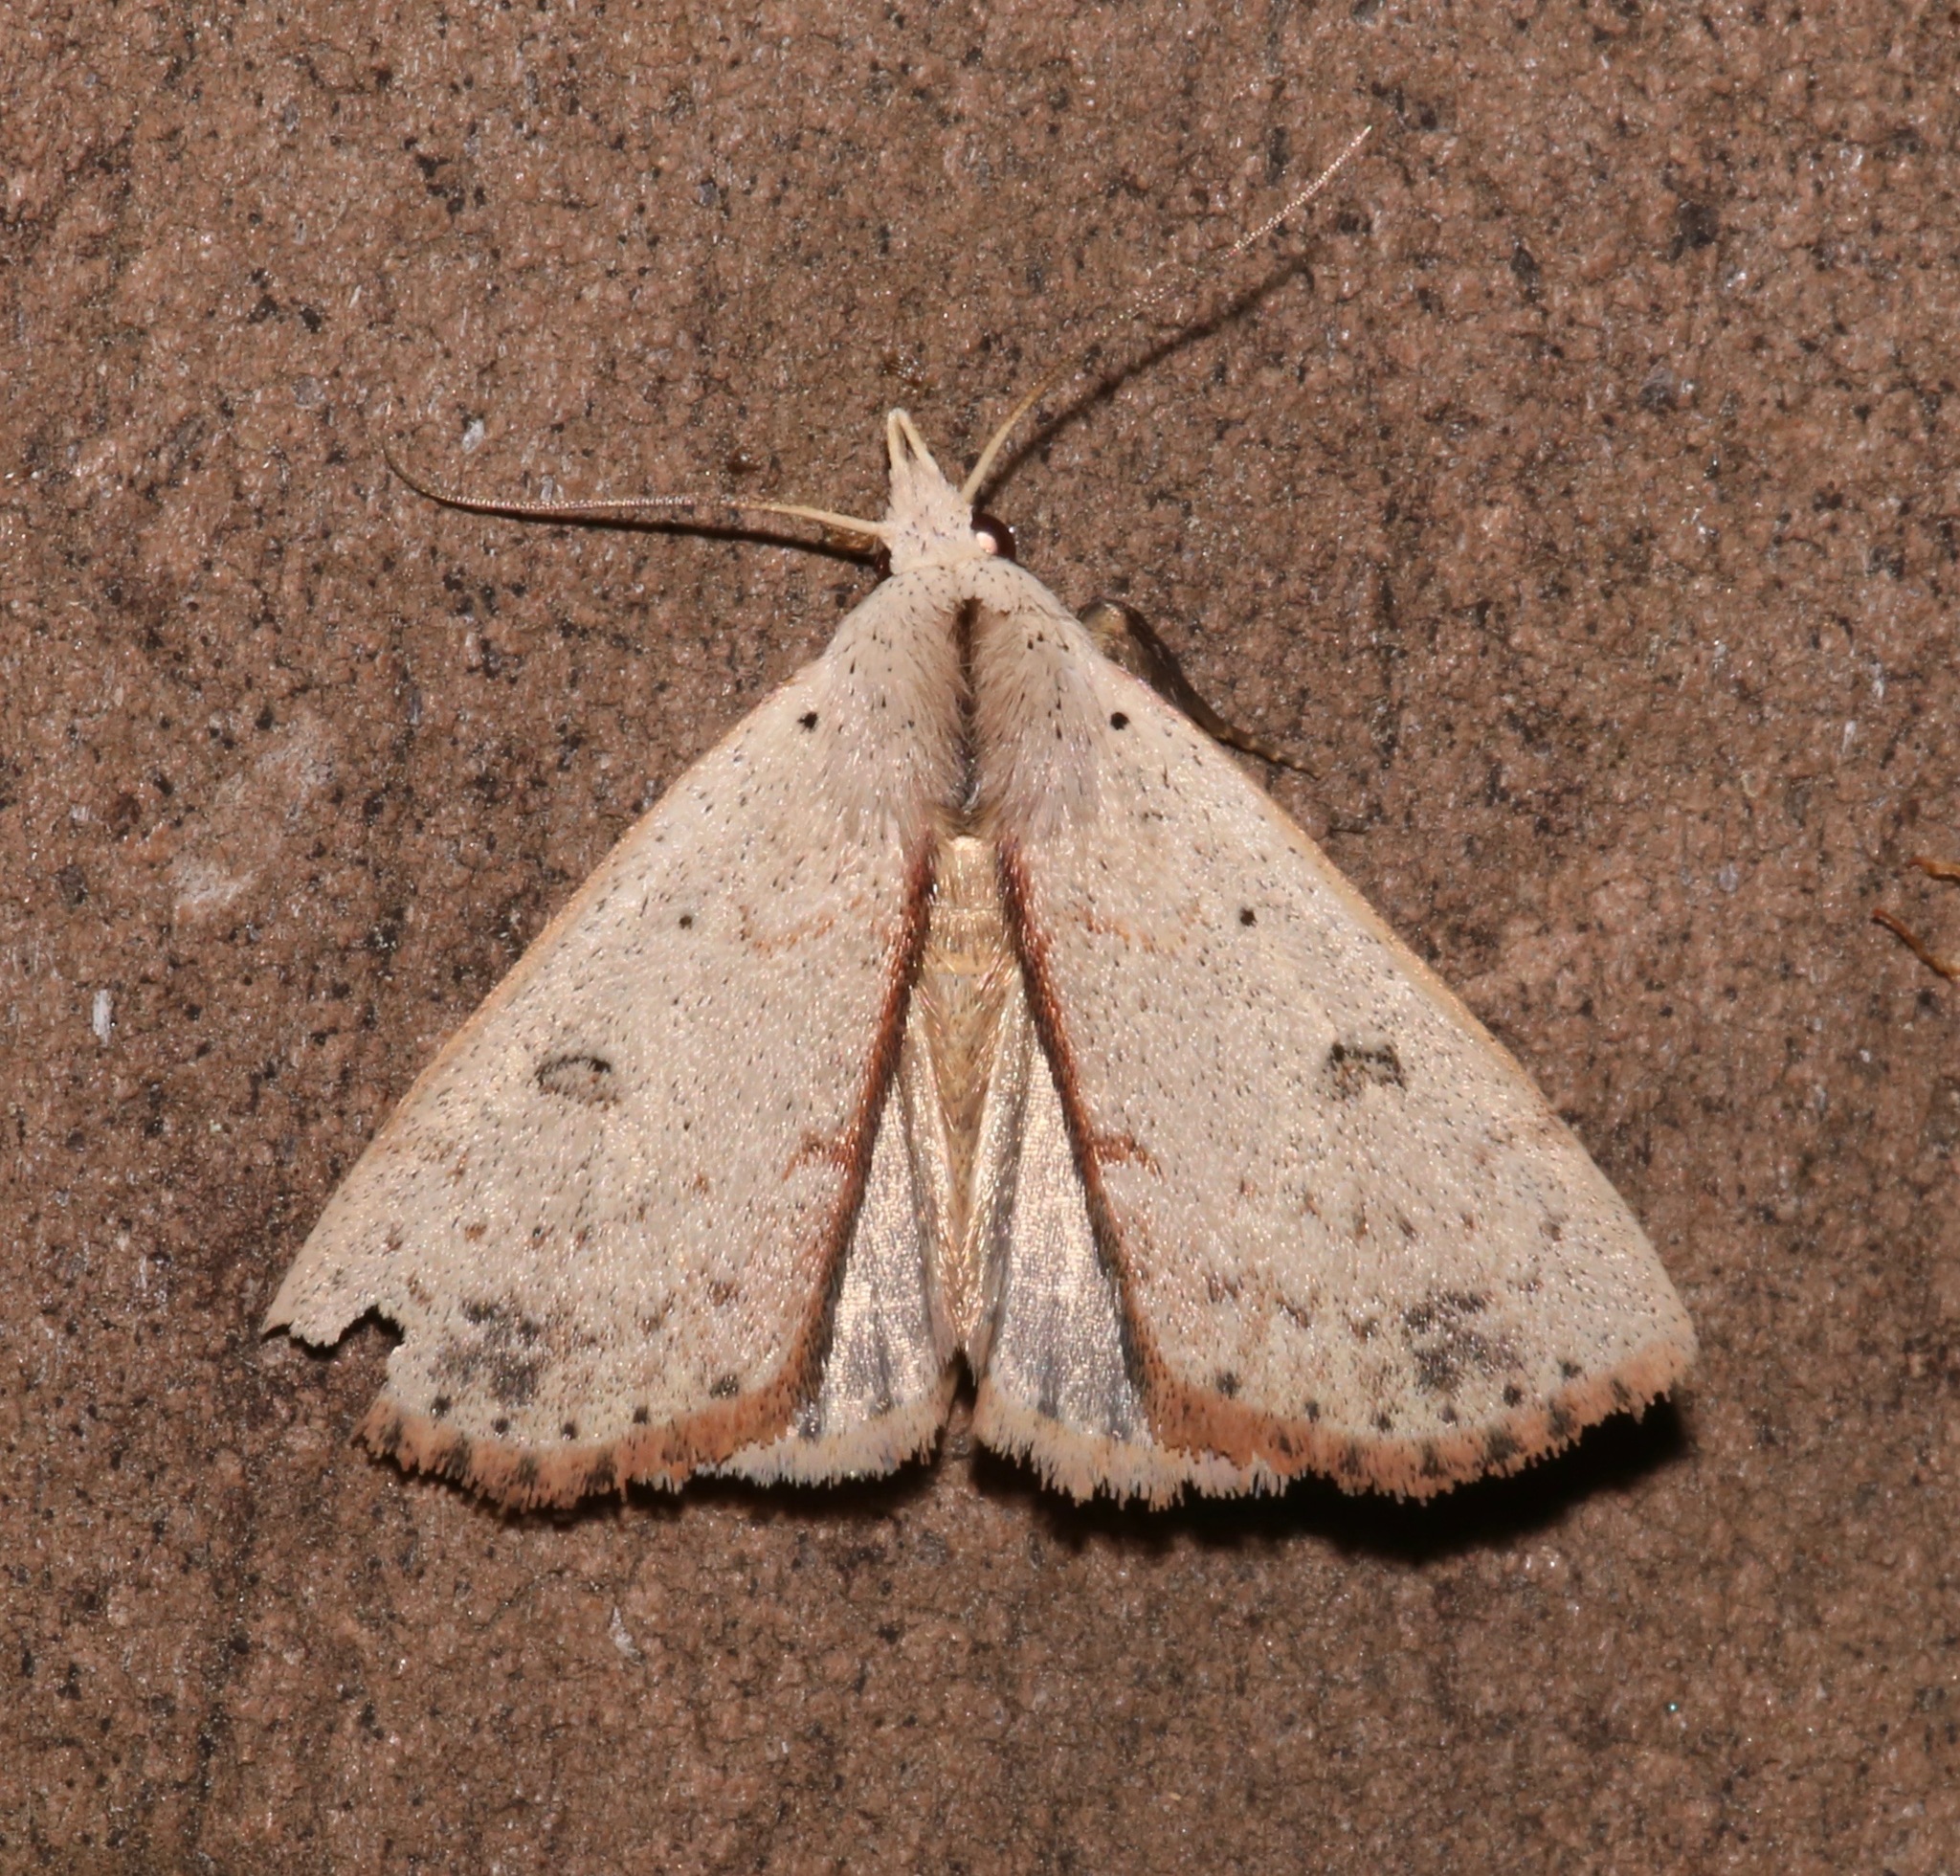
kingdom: Animalia
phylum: Arthropoda
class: Insecta
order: Lepidoptera
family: Erebidae
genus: Scolecocampa
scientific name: Scolecocampa liburna
